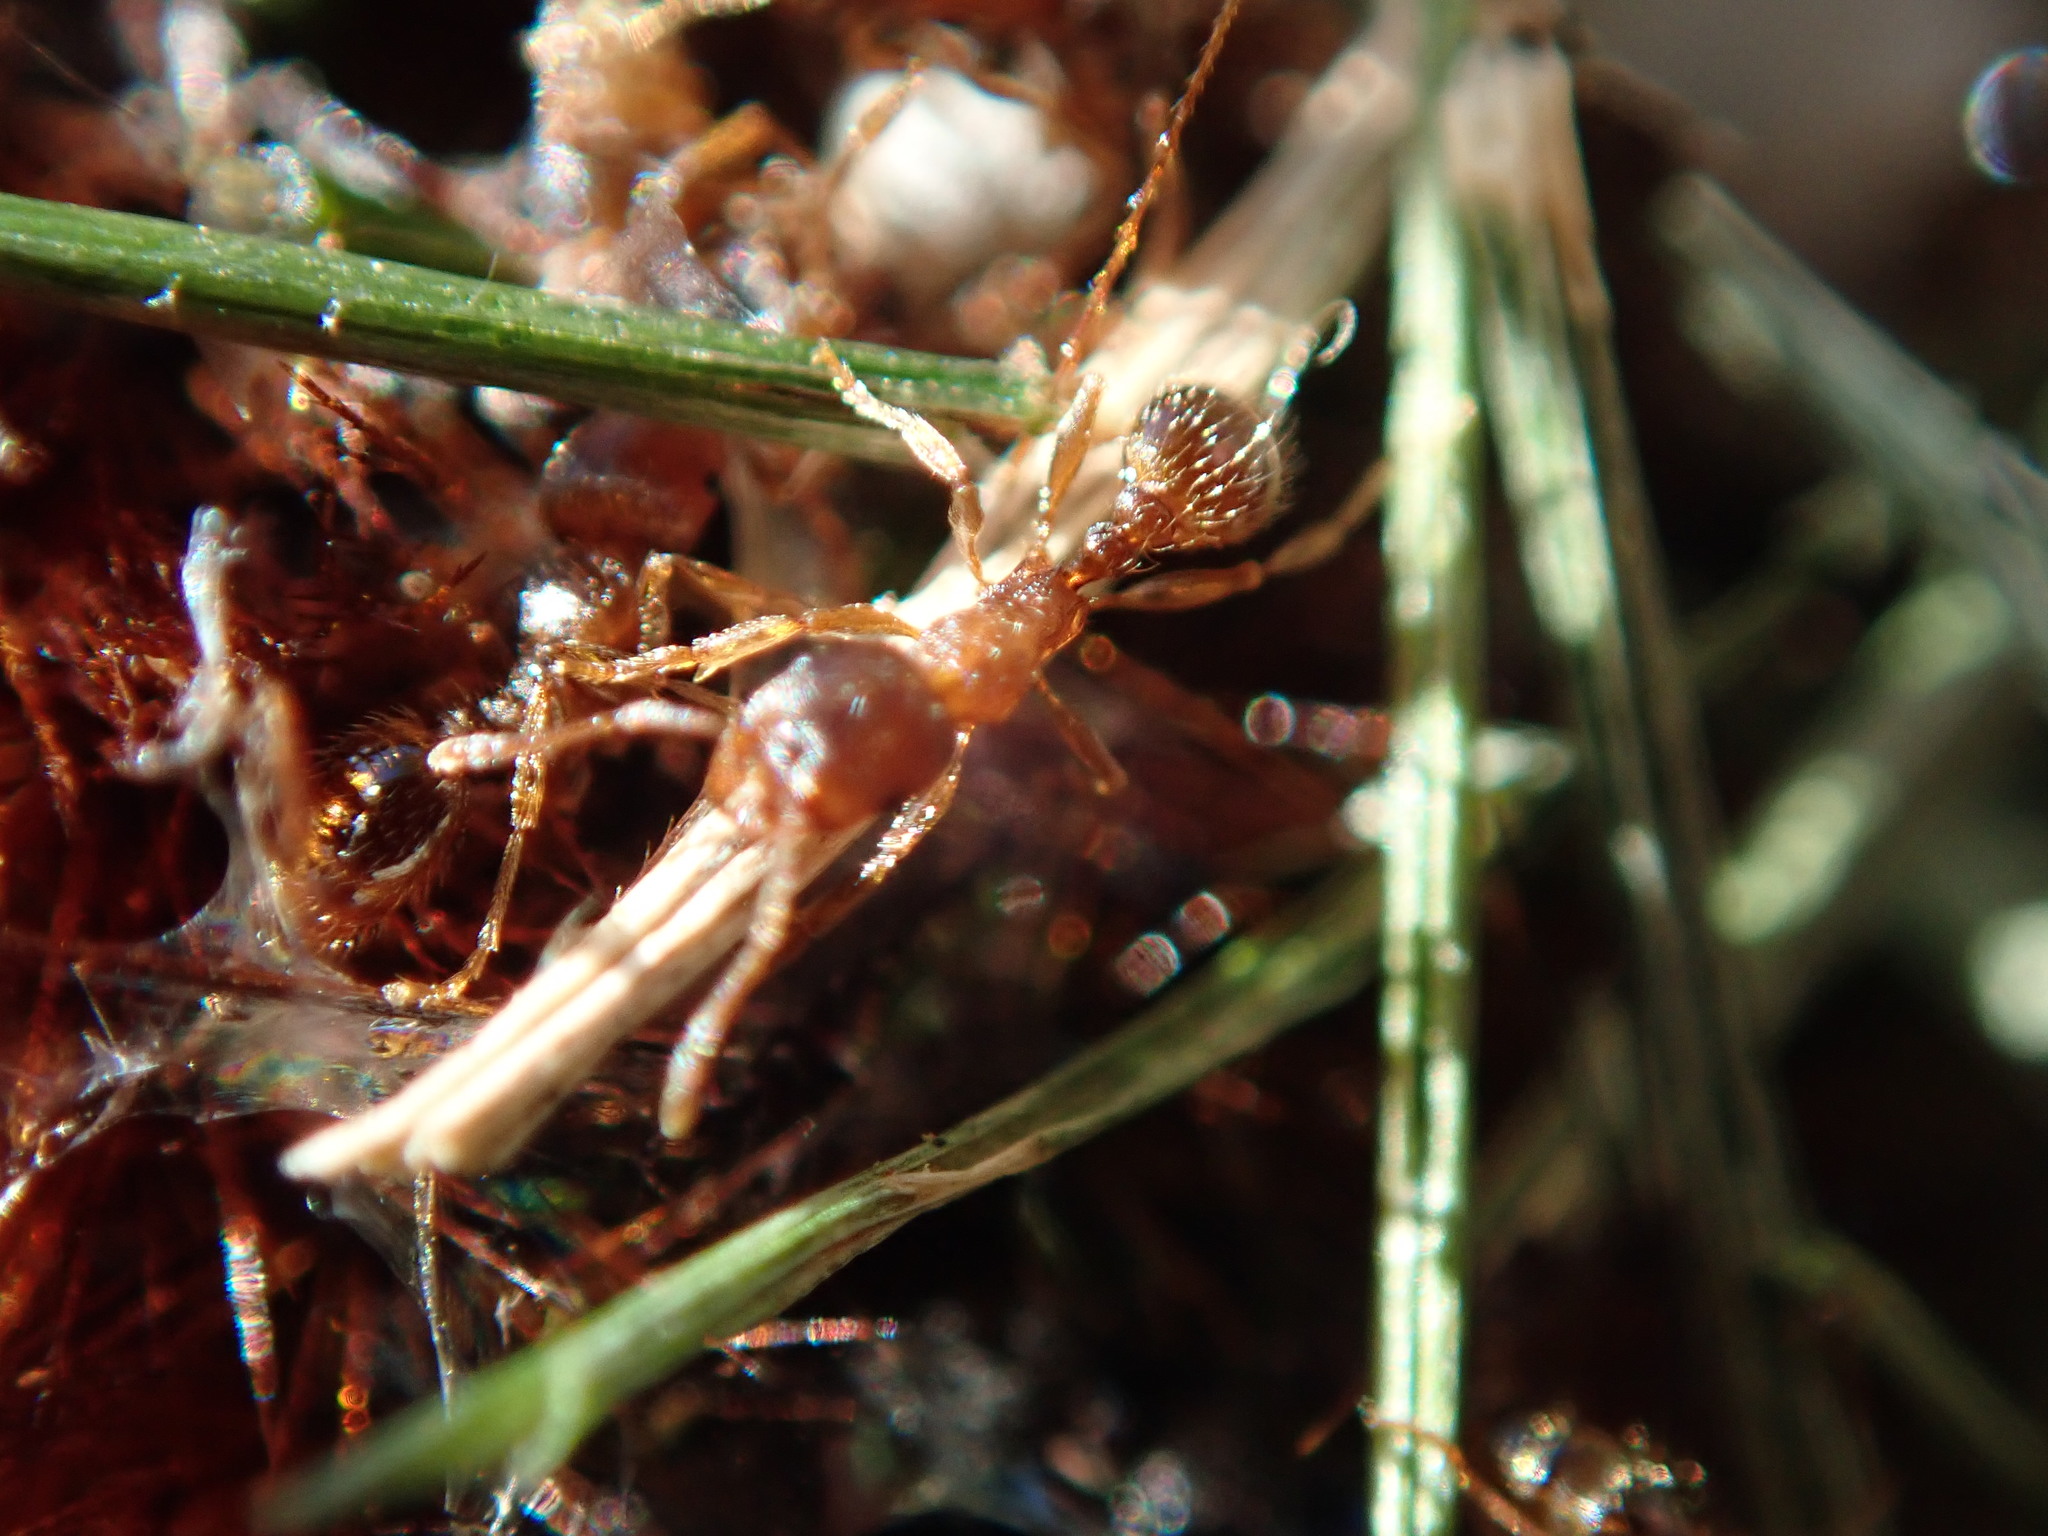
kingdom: Animalia
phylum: Arthropoda
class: Insecta
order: Hymenoptera
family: Formicidae
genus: Pheidole
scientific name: Pheidole pilifera
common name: Hairy big-headed ant
